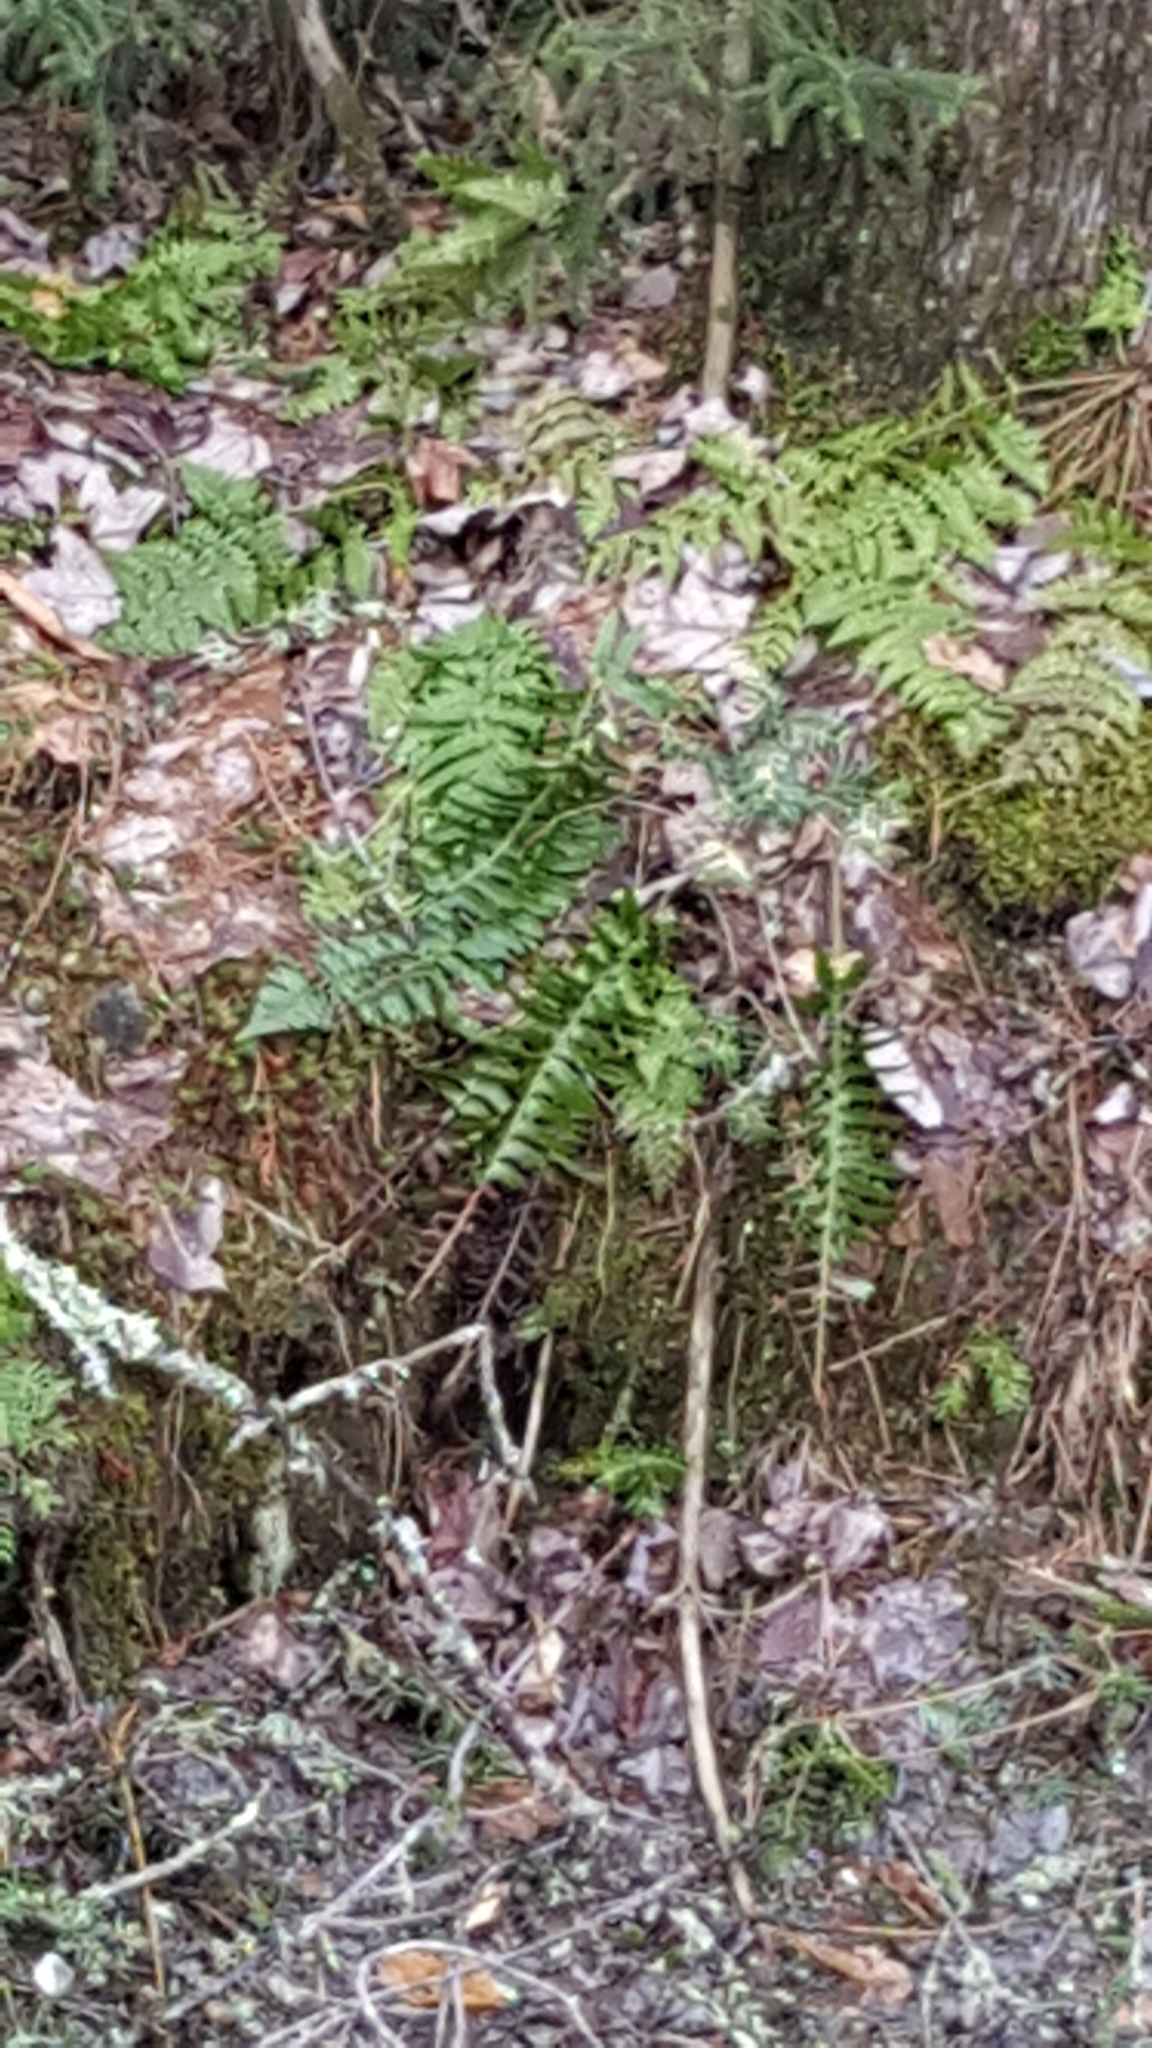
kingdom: Plantae
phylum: Tracheophyta
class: Polypodiopsida
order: Polypodiales
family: Dryopteridaceae
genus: Polystichum
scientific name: Polystichum acrostichoides
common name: Christmas fern
